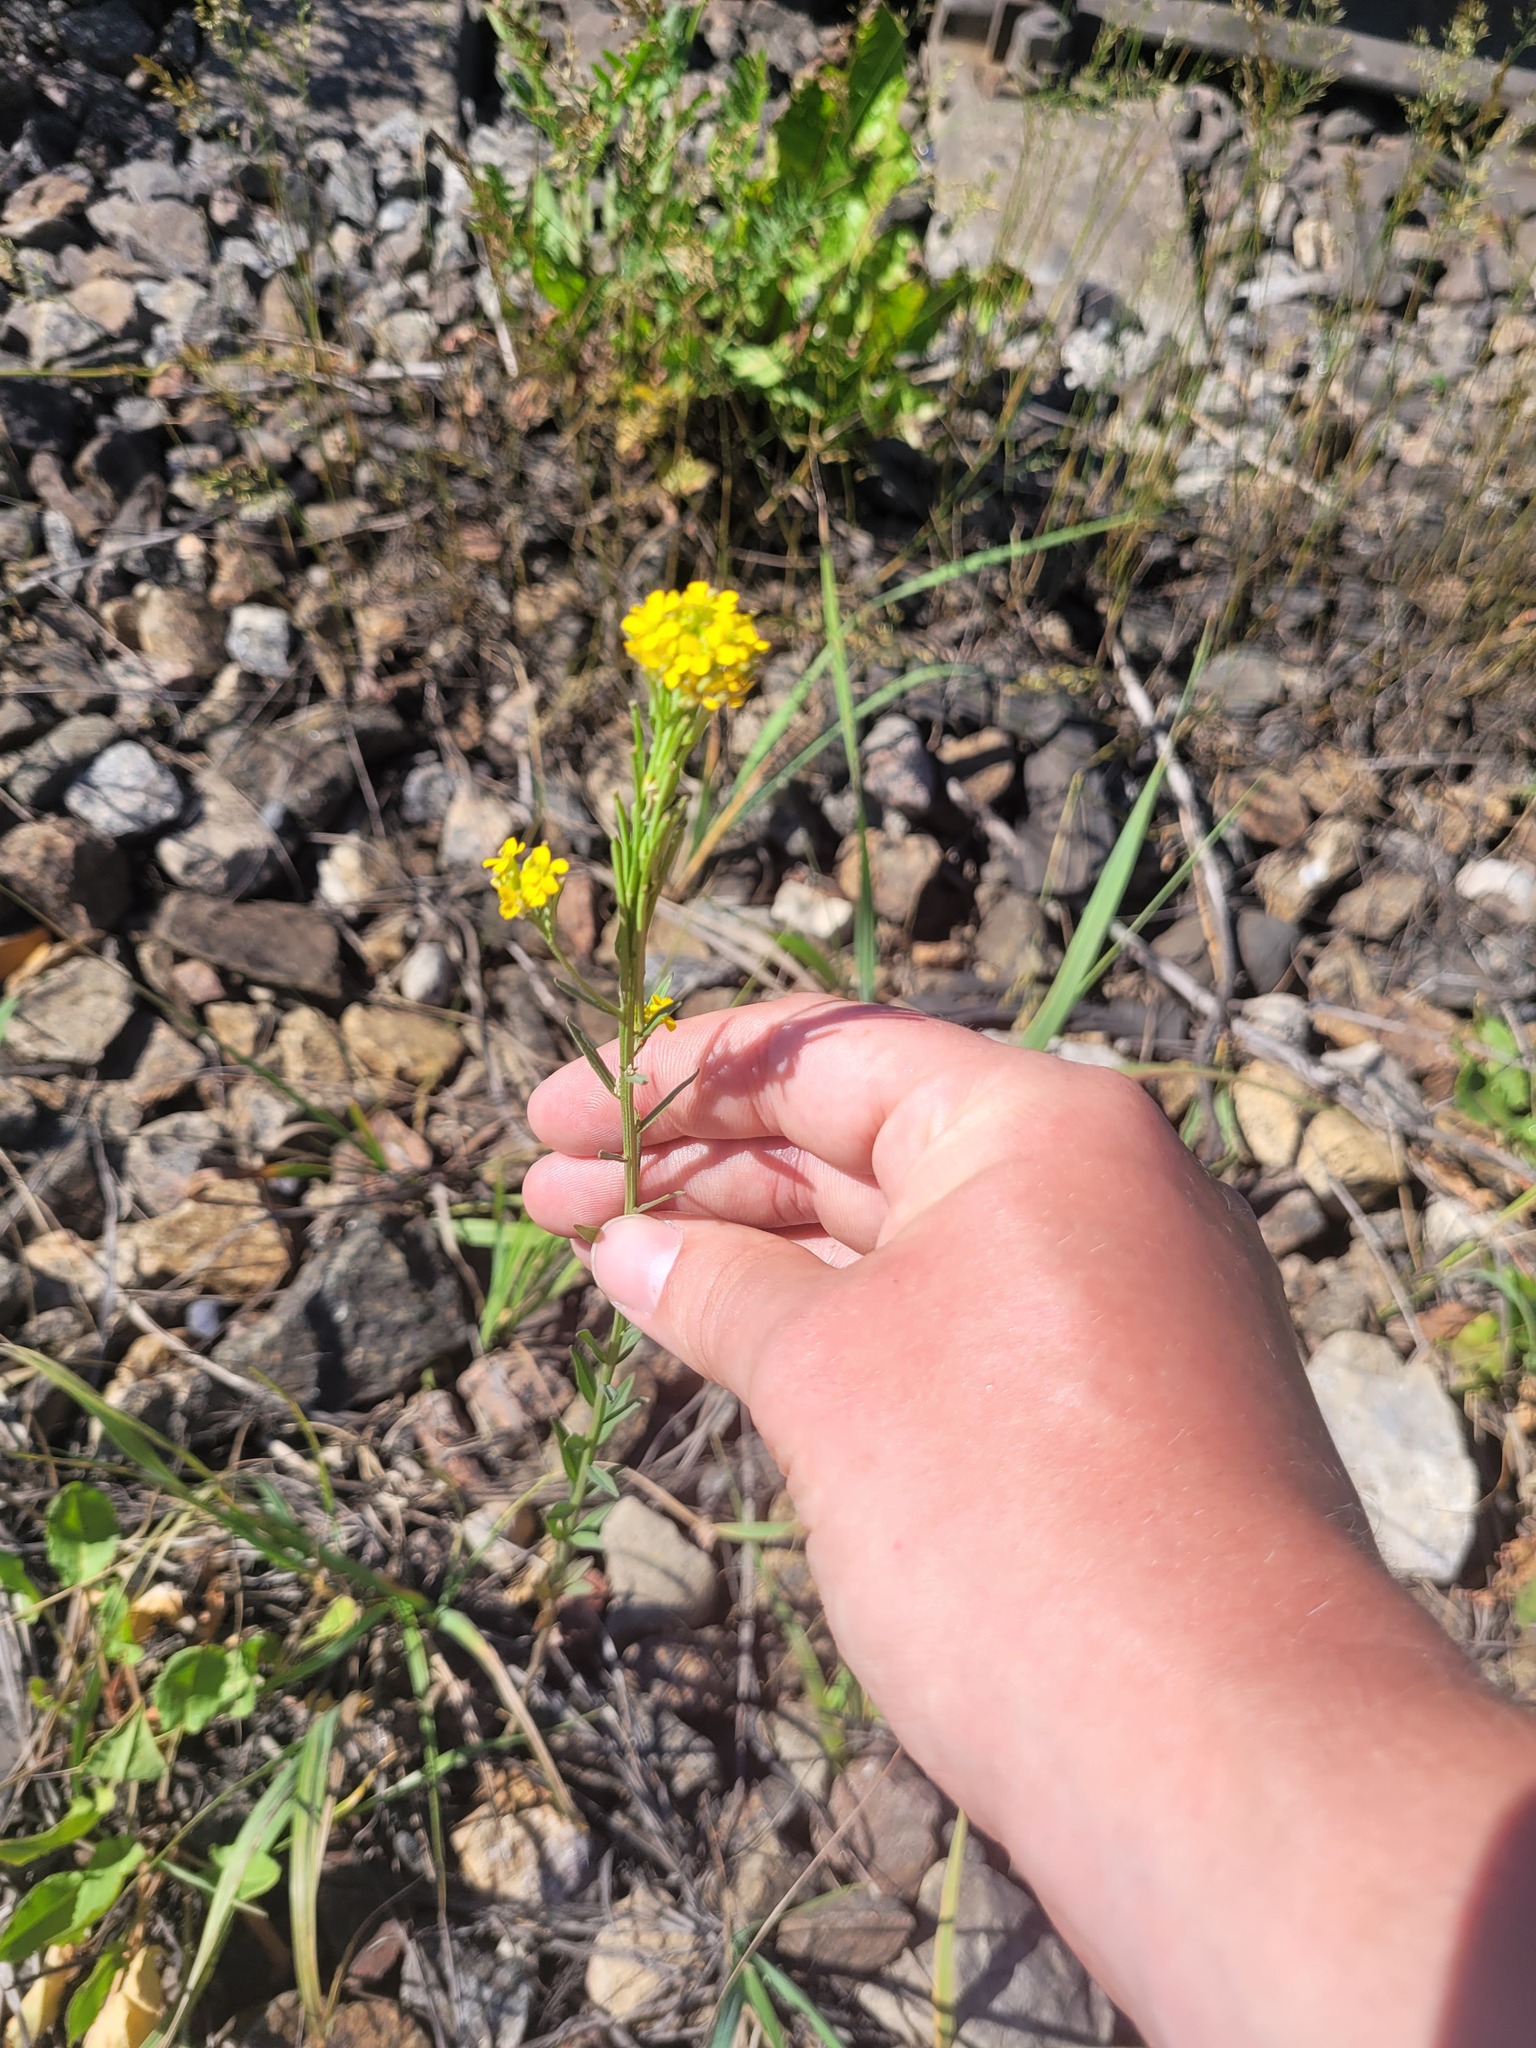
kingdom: Plantae
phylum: Tracheophyta
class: Magnoliopsida
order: Brassicales
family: Brassicaceae
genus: Erysimum
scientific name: Erysimum hieraciifolium
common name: European wallflower
